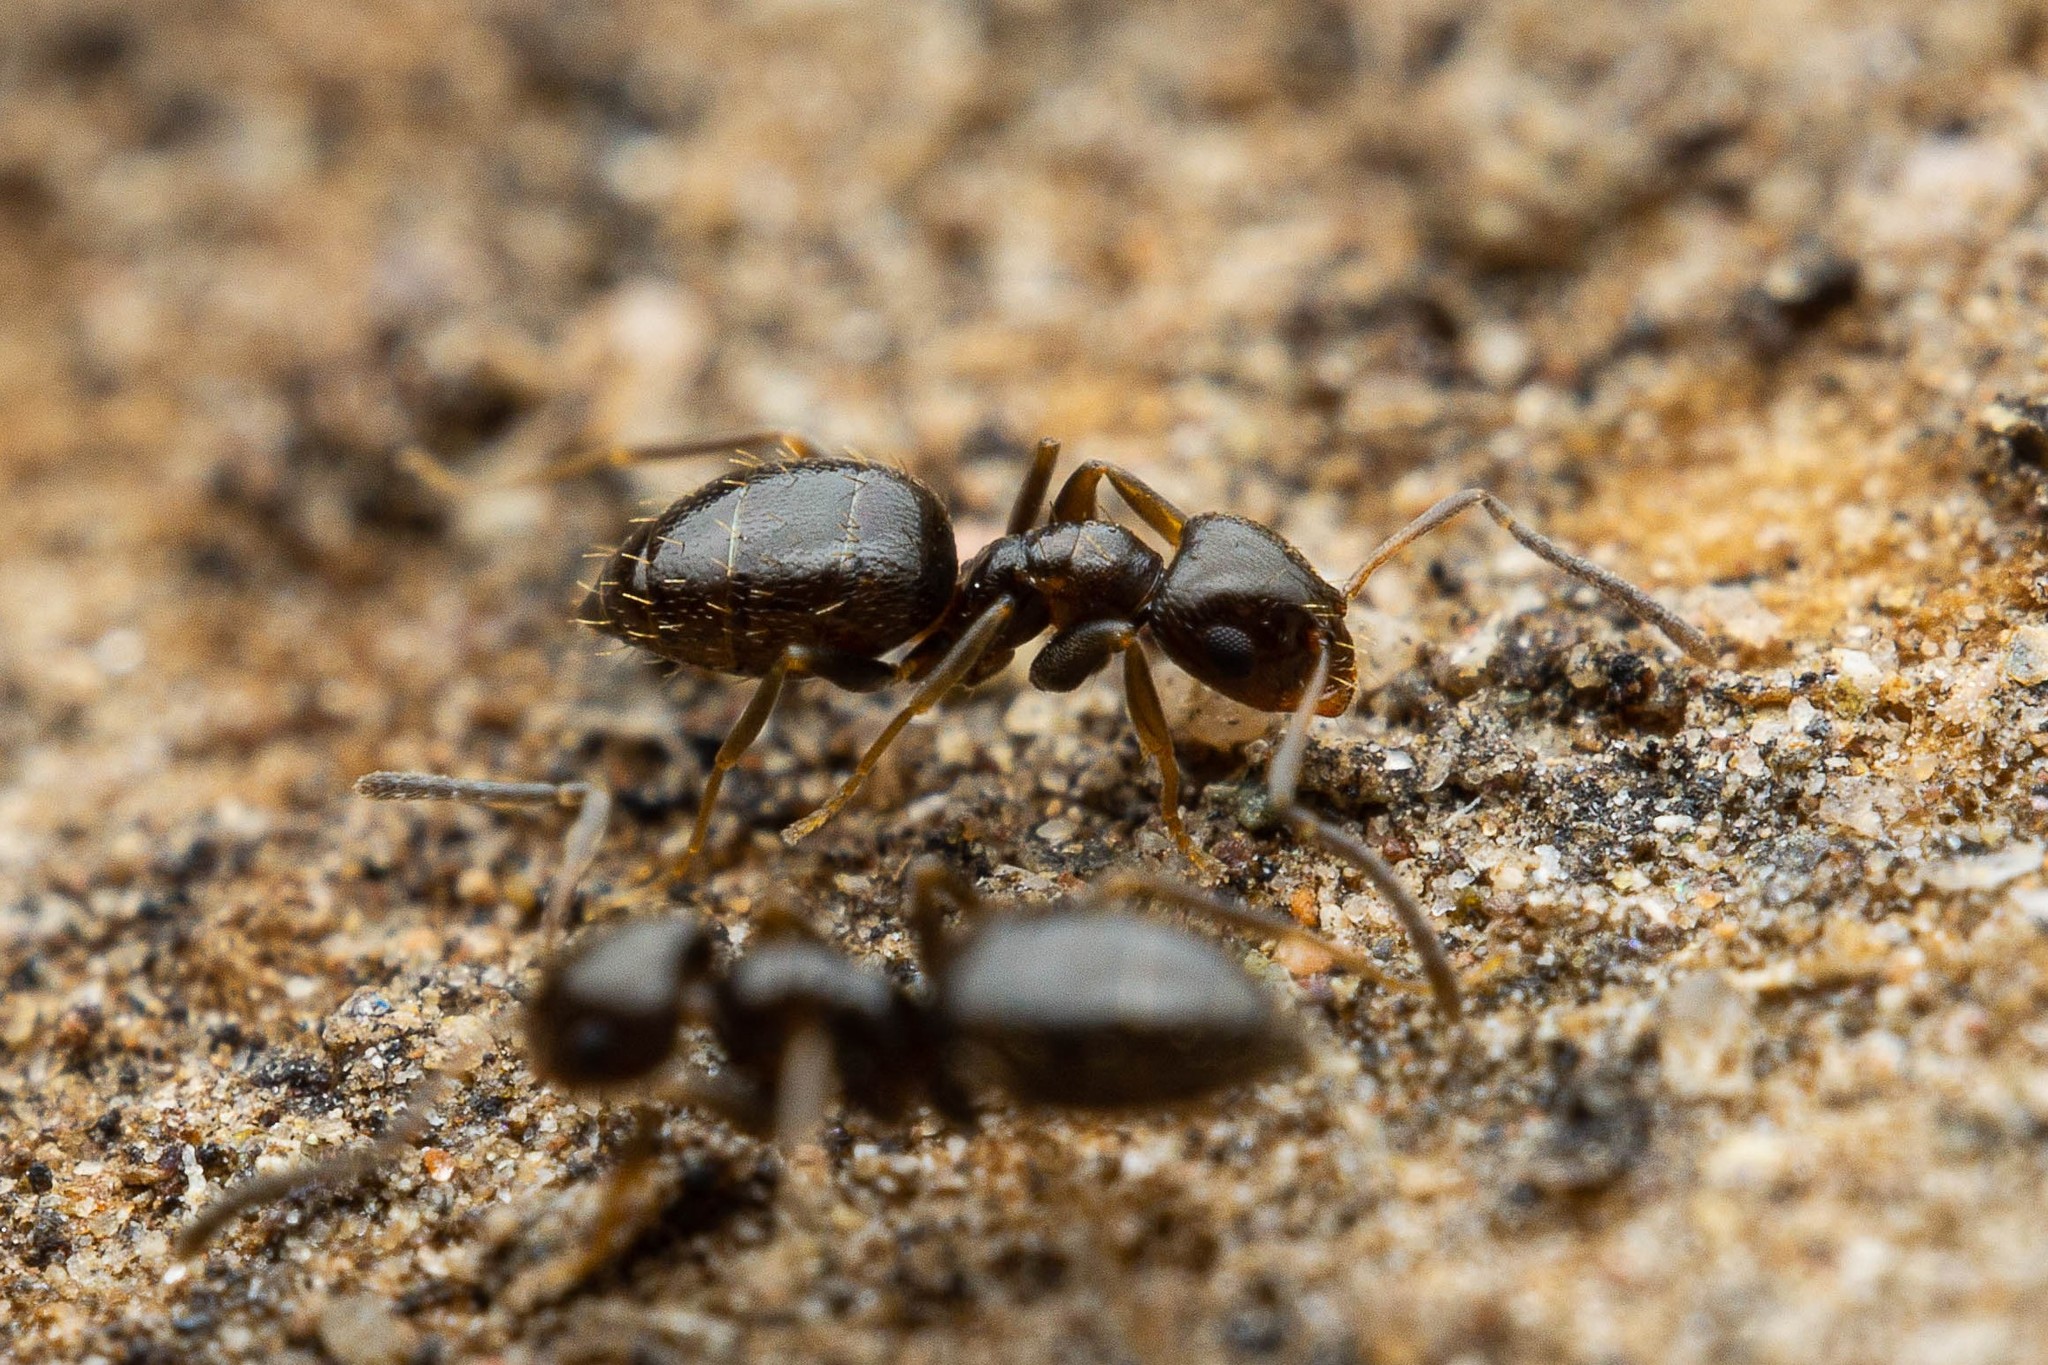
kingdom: Animalia
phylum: Arthropoda
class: Insecta
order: Hymenoptera
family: Formicidae
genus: Brachymyrmex
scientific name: Brachymyrmex patagonicus
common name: Dark rover ant
